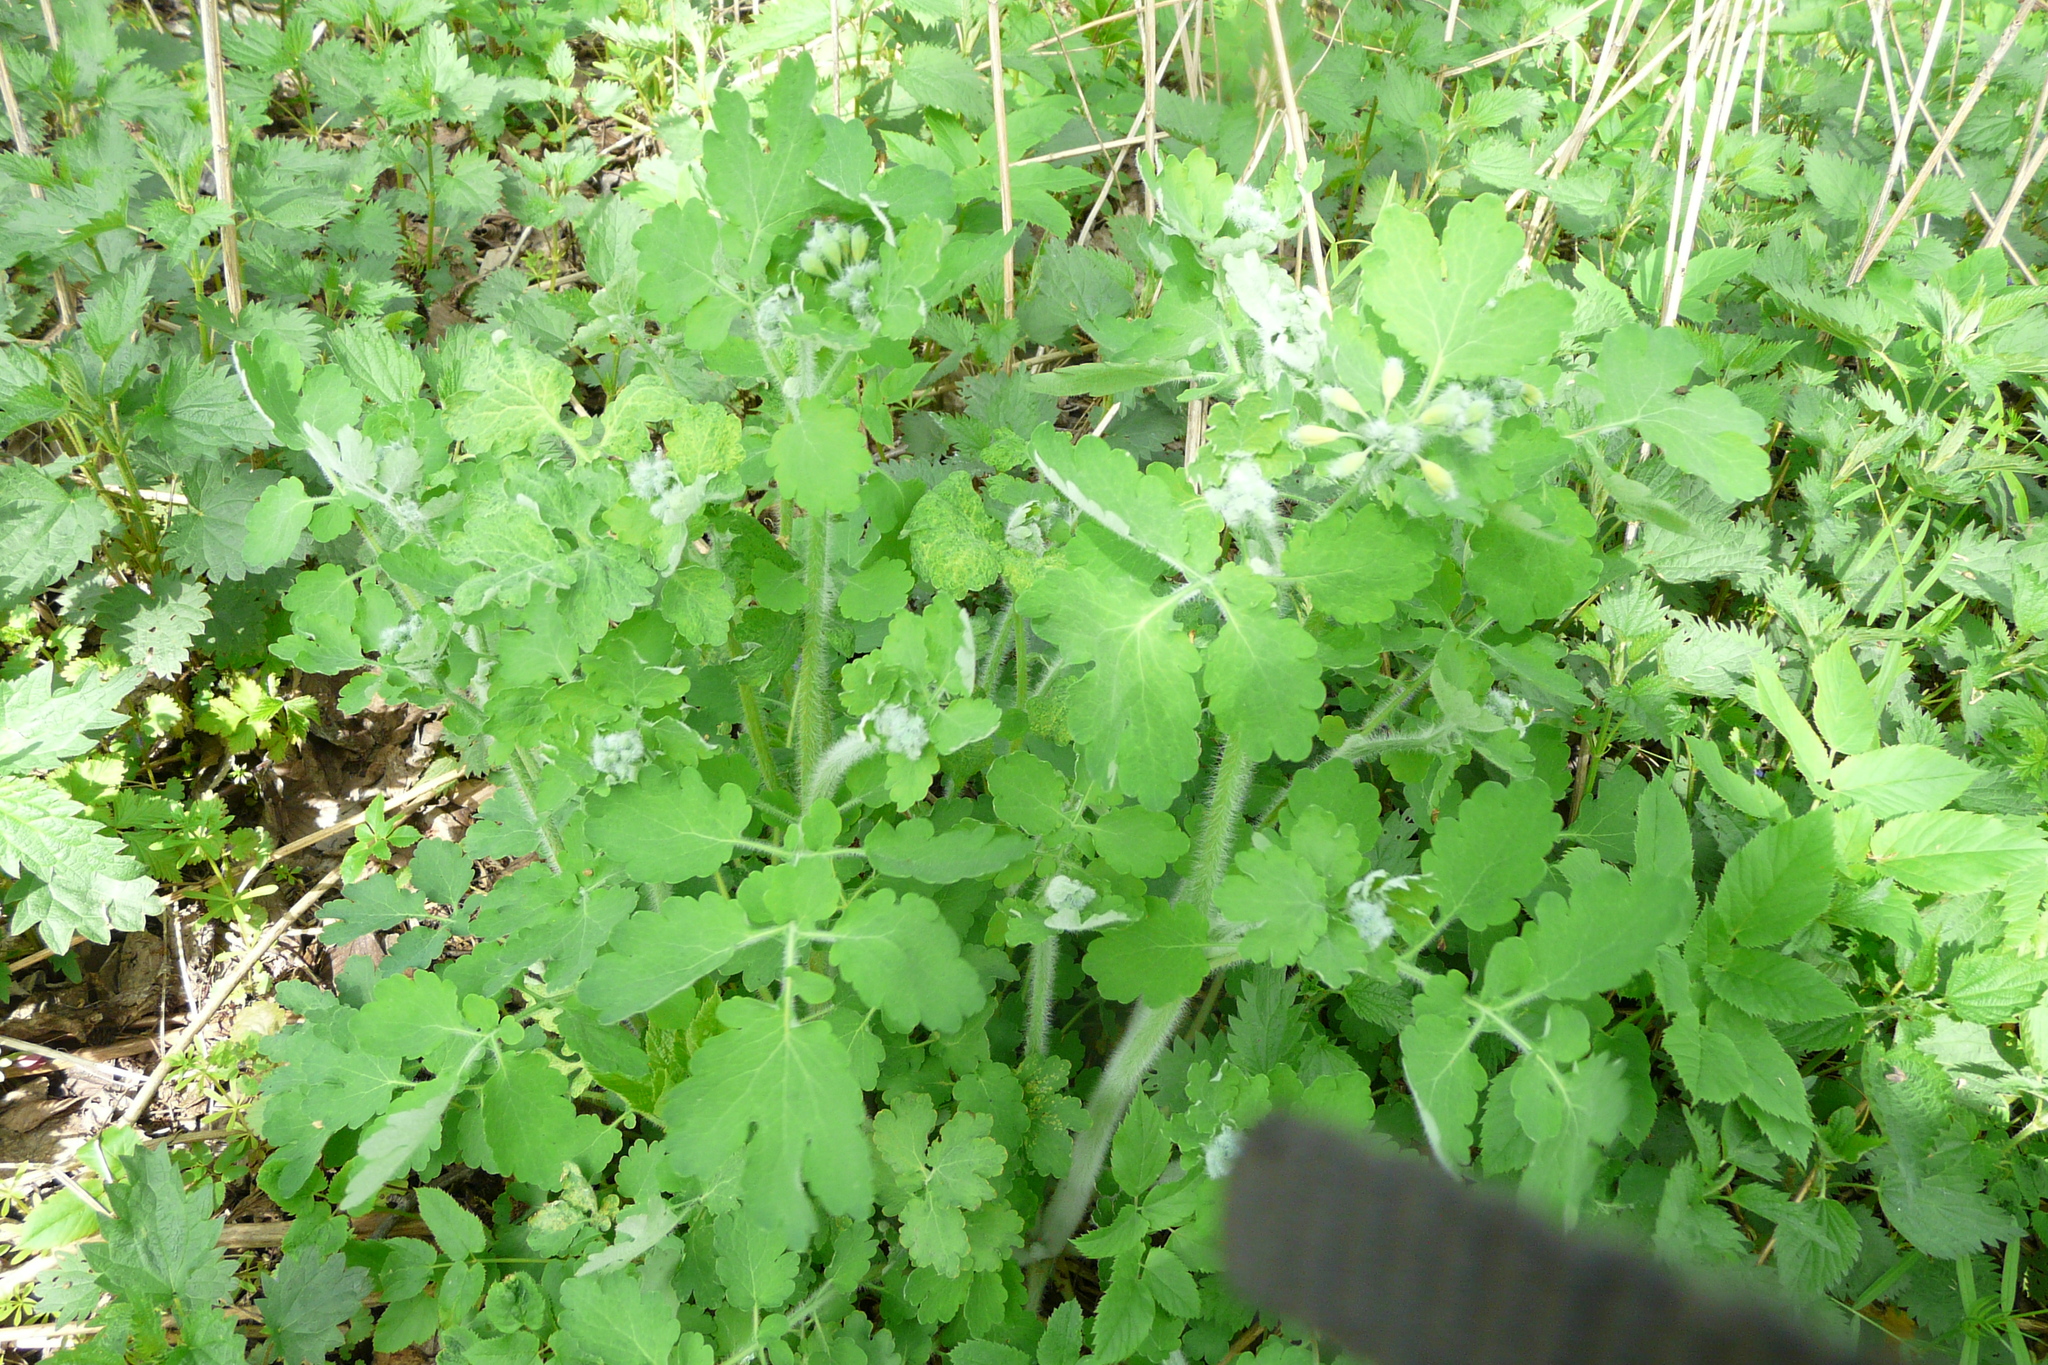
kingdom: Plantae
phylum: Tracheophyta
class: Magnoliopsida
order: Ranunculales
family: Papaveraceae
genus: Chelidonium
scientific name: Chelidonium majus
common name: Greater celandine
